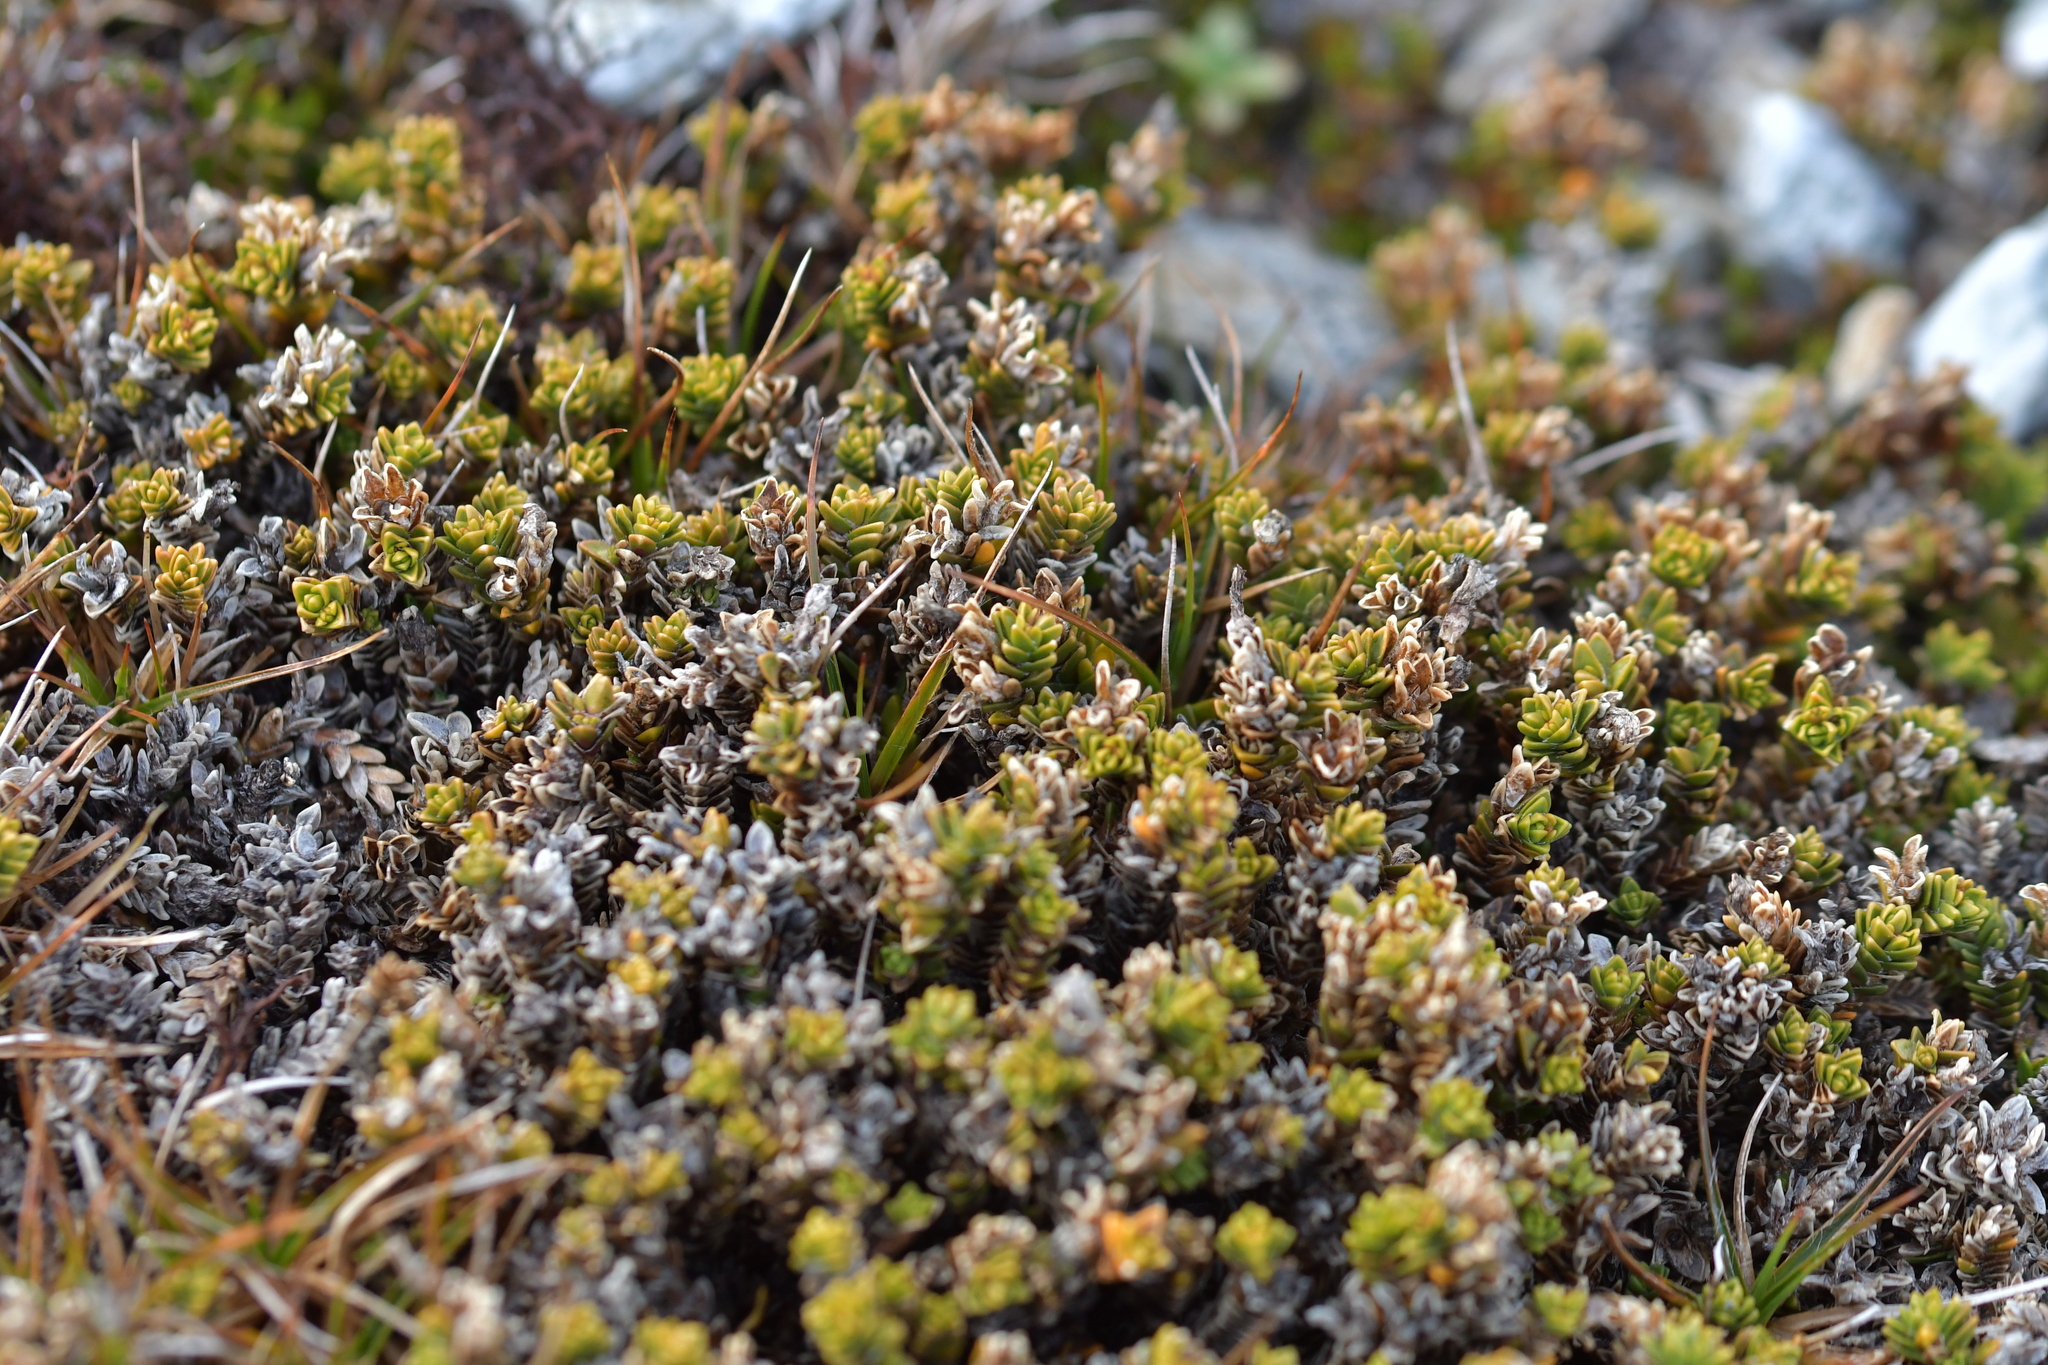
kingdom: Plantae
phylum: Tracheophyta
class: Magnoliopsida
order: Lamiales
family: Plantaginaceae
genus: Veronica
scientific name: Veronica densifolia
